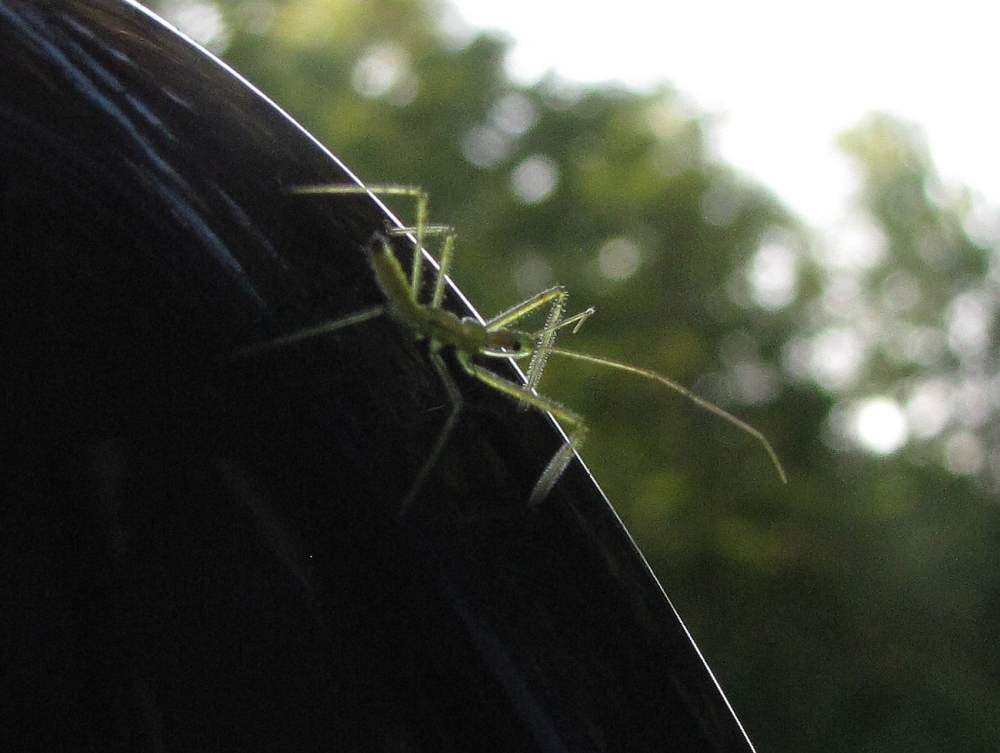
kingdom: Animalia
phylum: Arthropoda
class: Insecta
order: Hemiptera
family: Reduviidae
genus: Zelus
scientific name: Zelus luridus
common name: Pale green assassin bug
